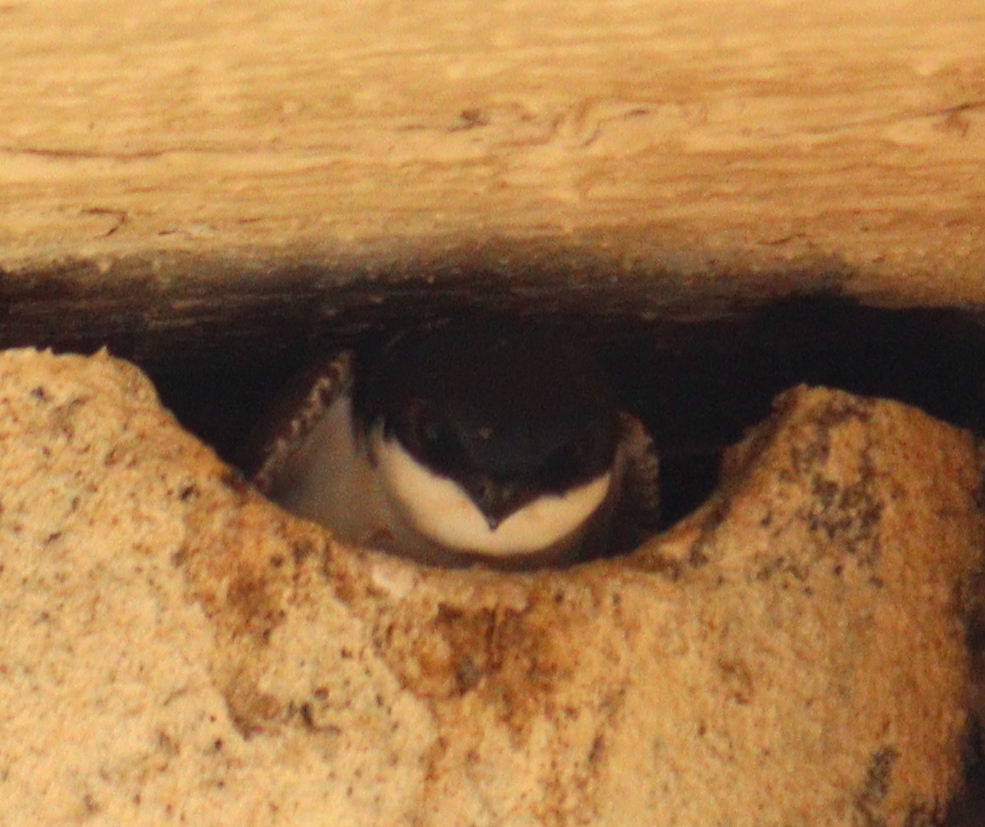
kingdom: Animalia
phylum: Chordata
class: Aves
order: Passeriformes
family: Hirundinidae
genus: Delichon
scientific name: Delichon urbicum
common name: Common house martin
